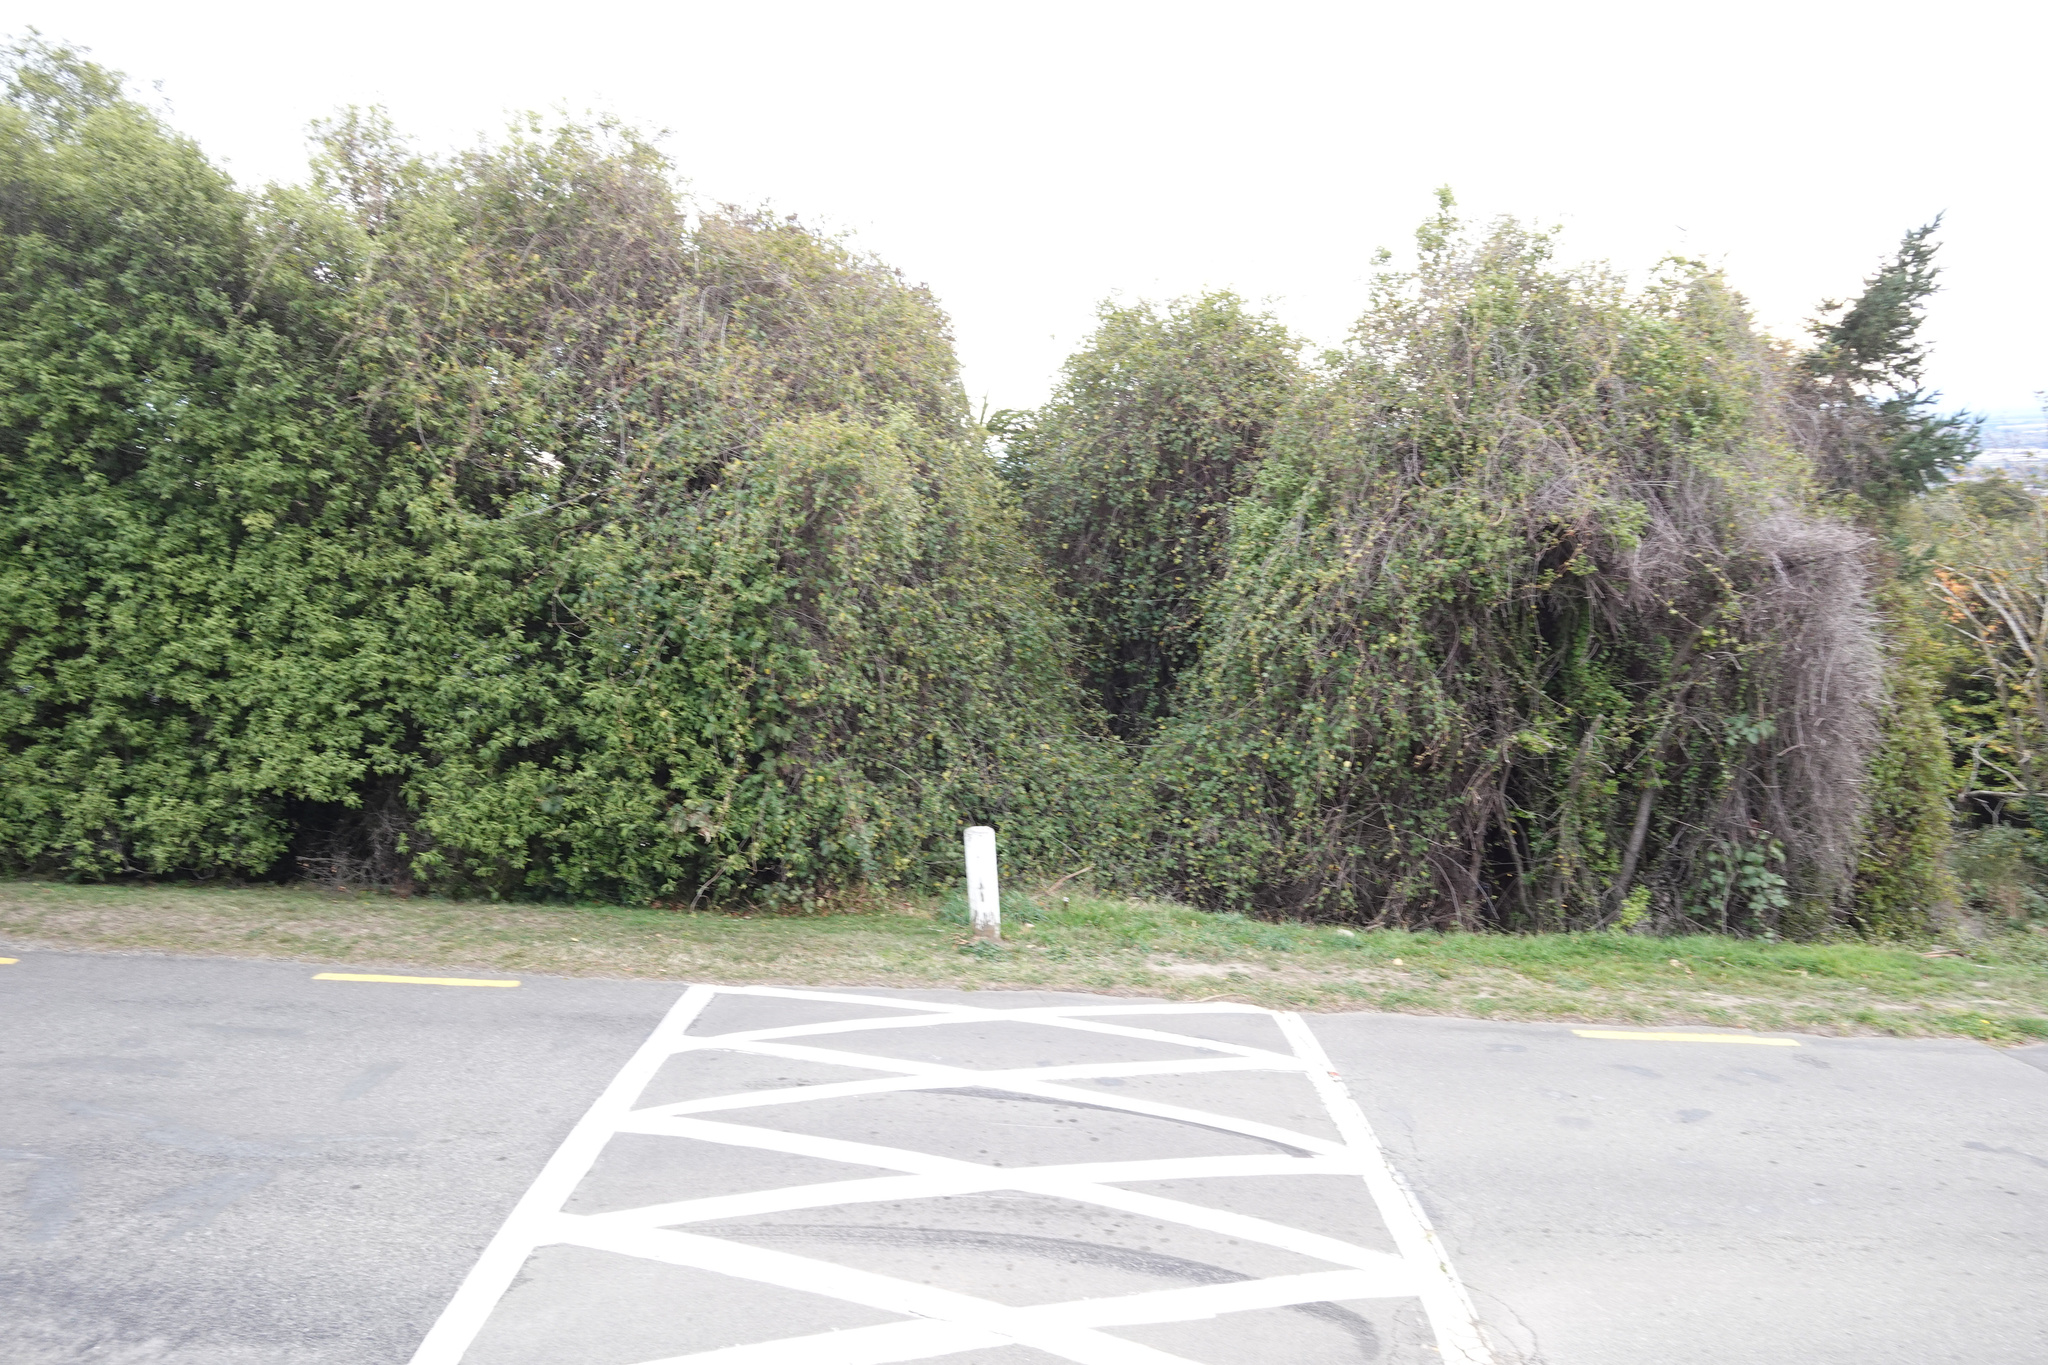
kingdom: Plantae
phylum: Tracheophyta
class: Magnoliopsida
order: Caryophyllales
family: Polygonaceae
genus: Muehlenbeckia
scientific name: Muehlenbeckia australis
